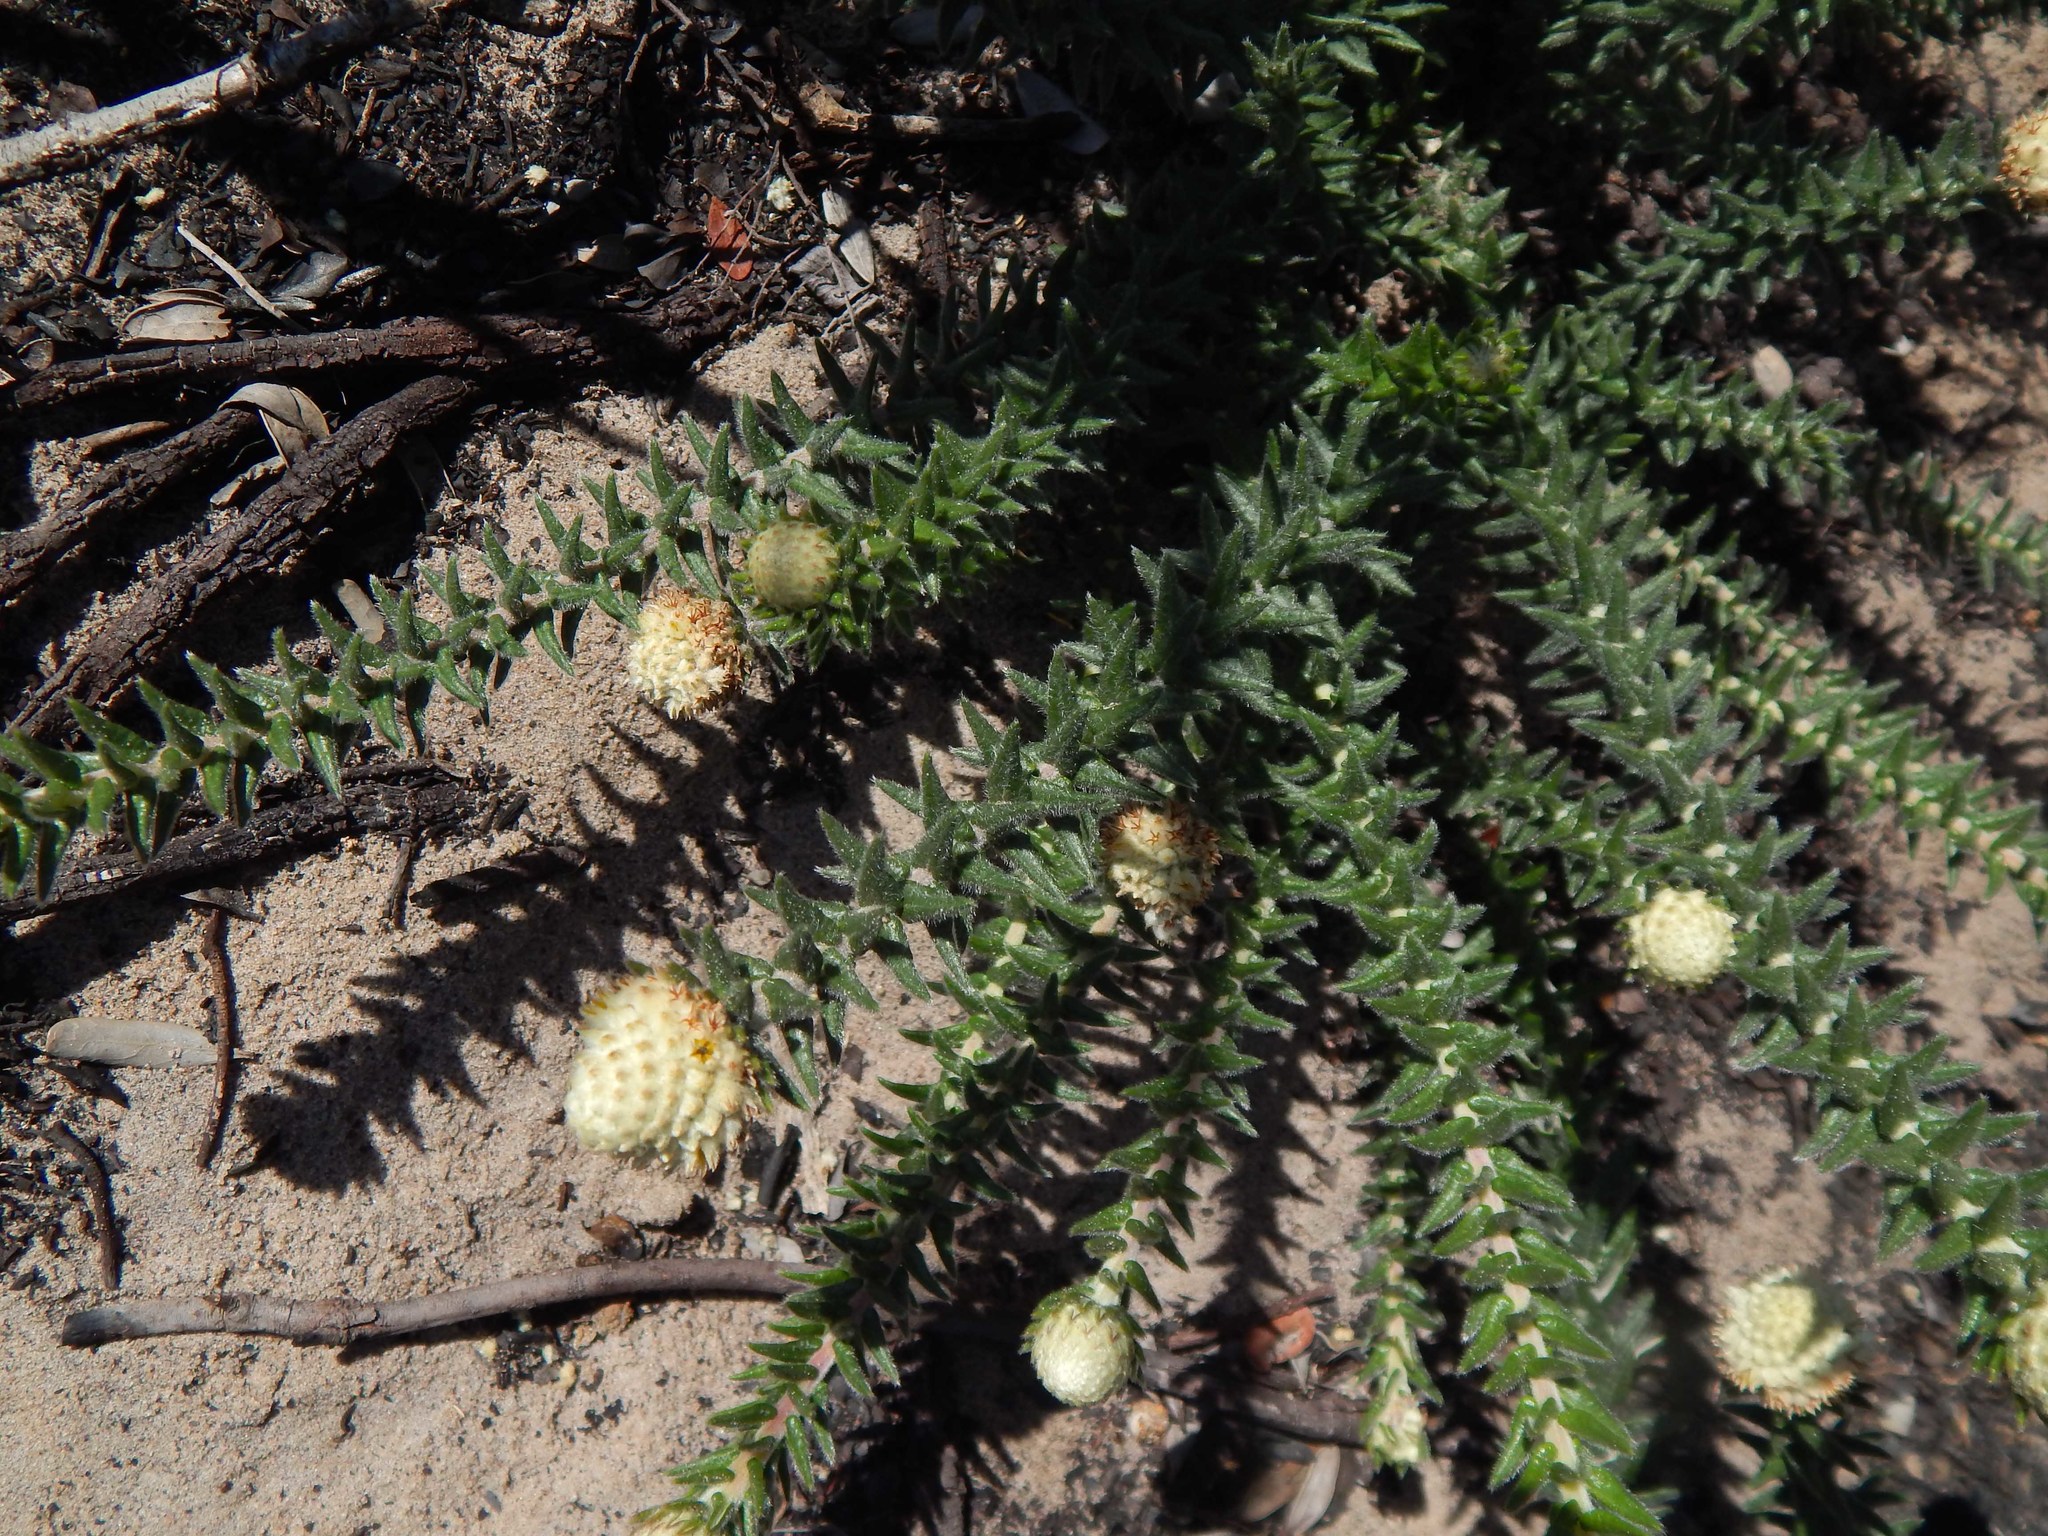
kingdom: Plantae
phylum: Tracheophyta
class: Magnoliopsida
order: Rosales
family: Rhamnaceae
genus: Phylica
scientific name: Phylica harveyi
